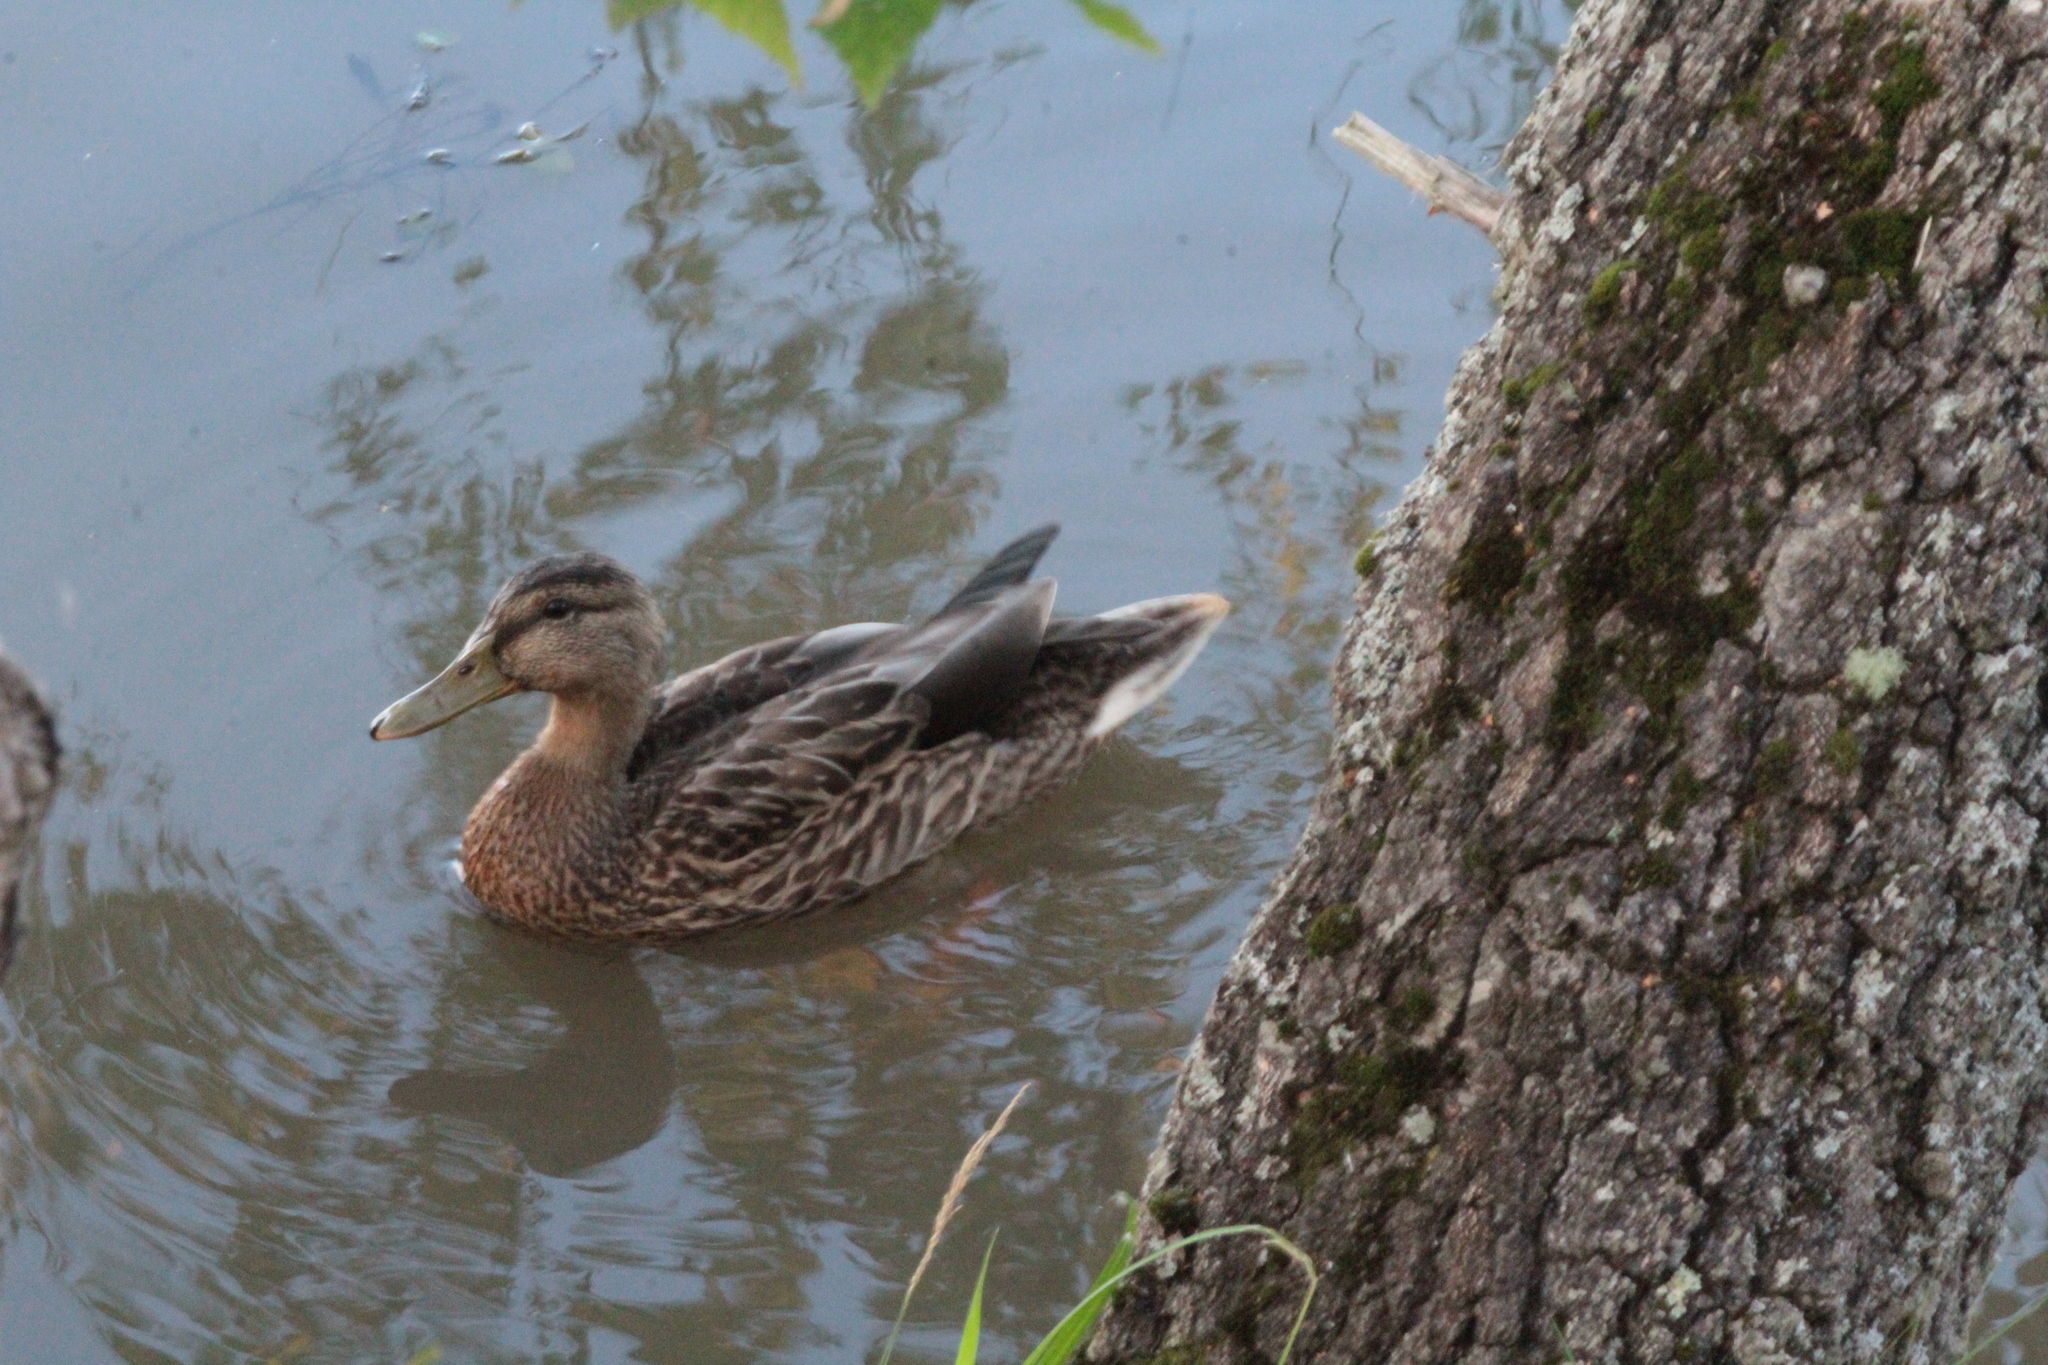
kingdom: Animalia
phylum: Chordata
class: Aves
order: Anseriformes
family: Anatidae
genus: Anas
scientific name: Anas platyrhynchos
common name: Mallard
